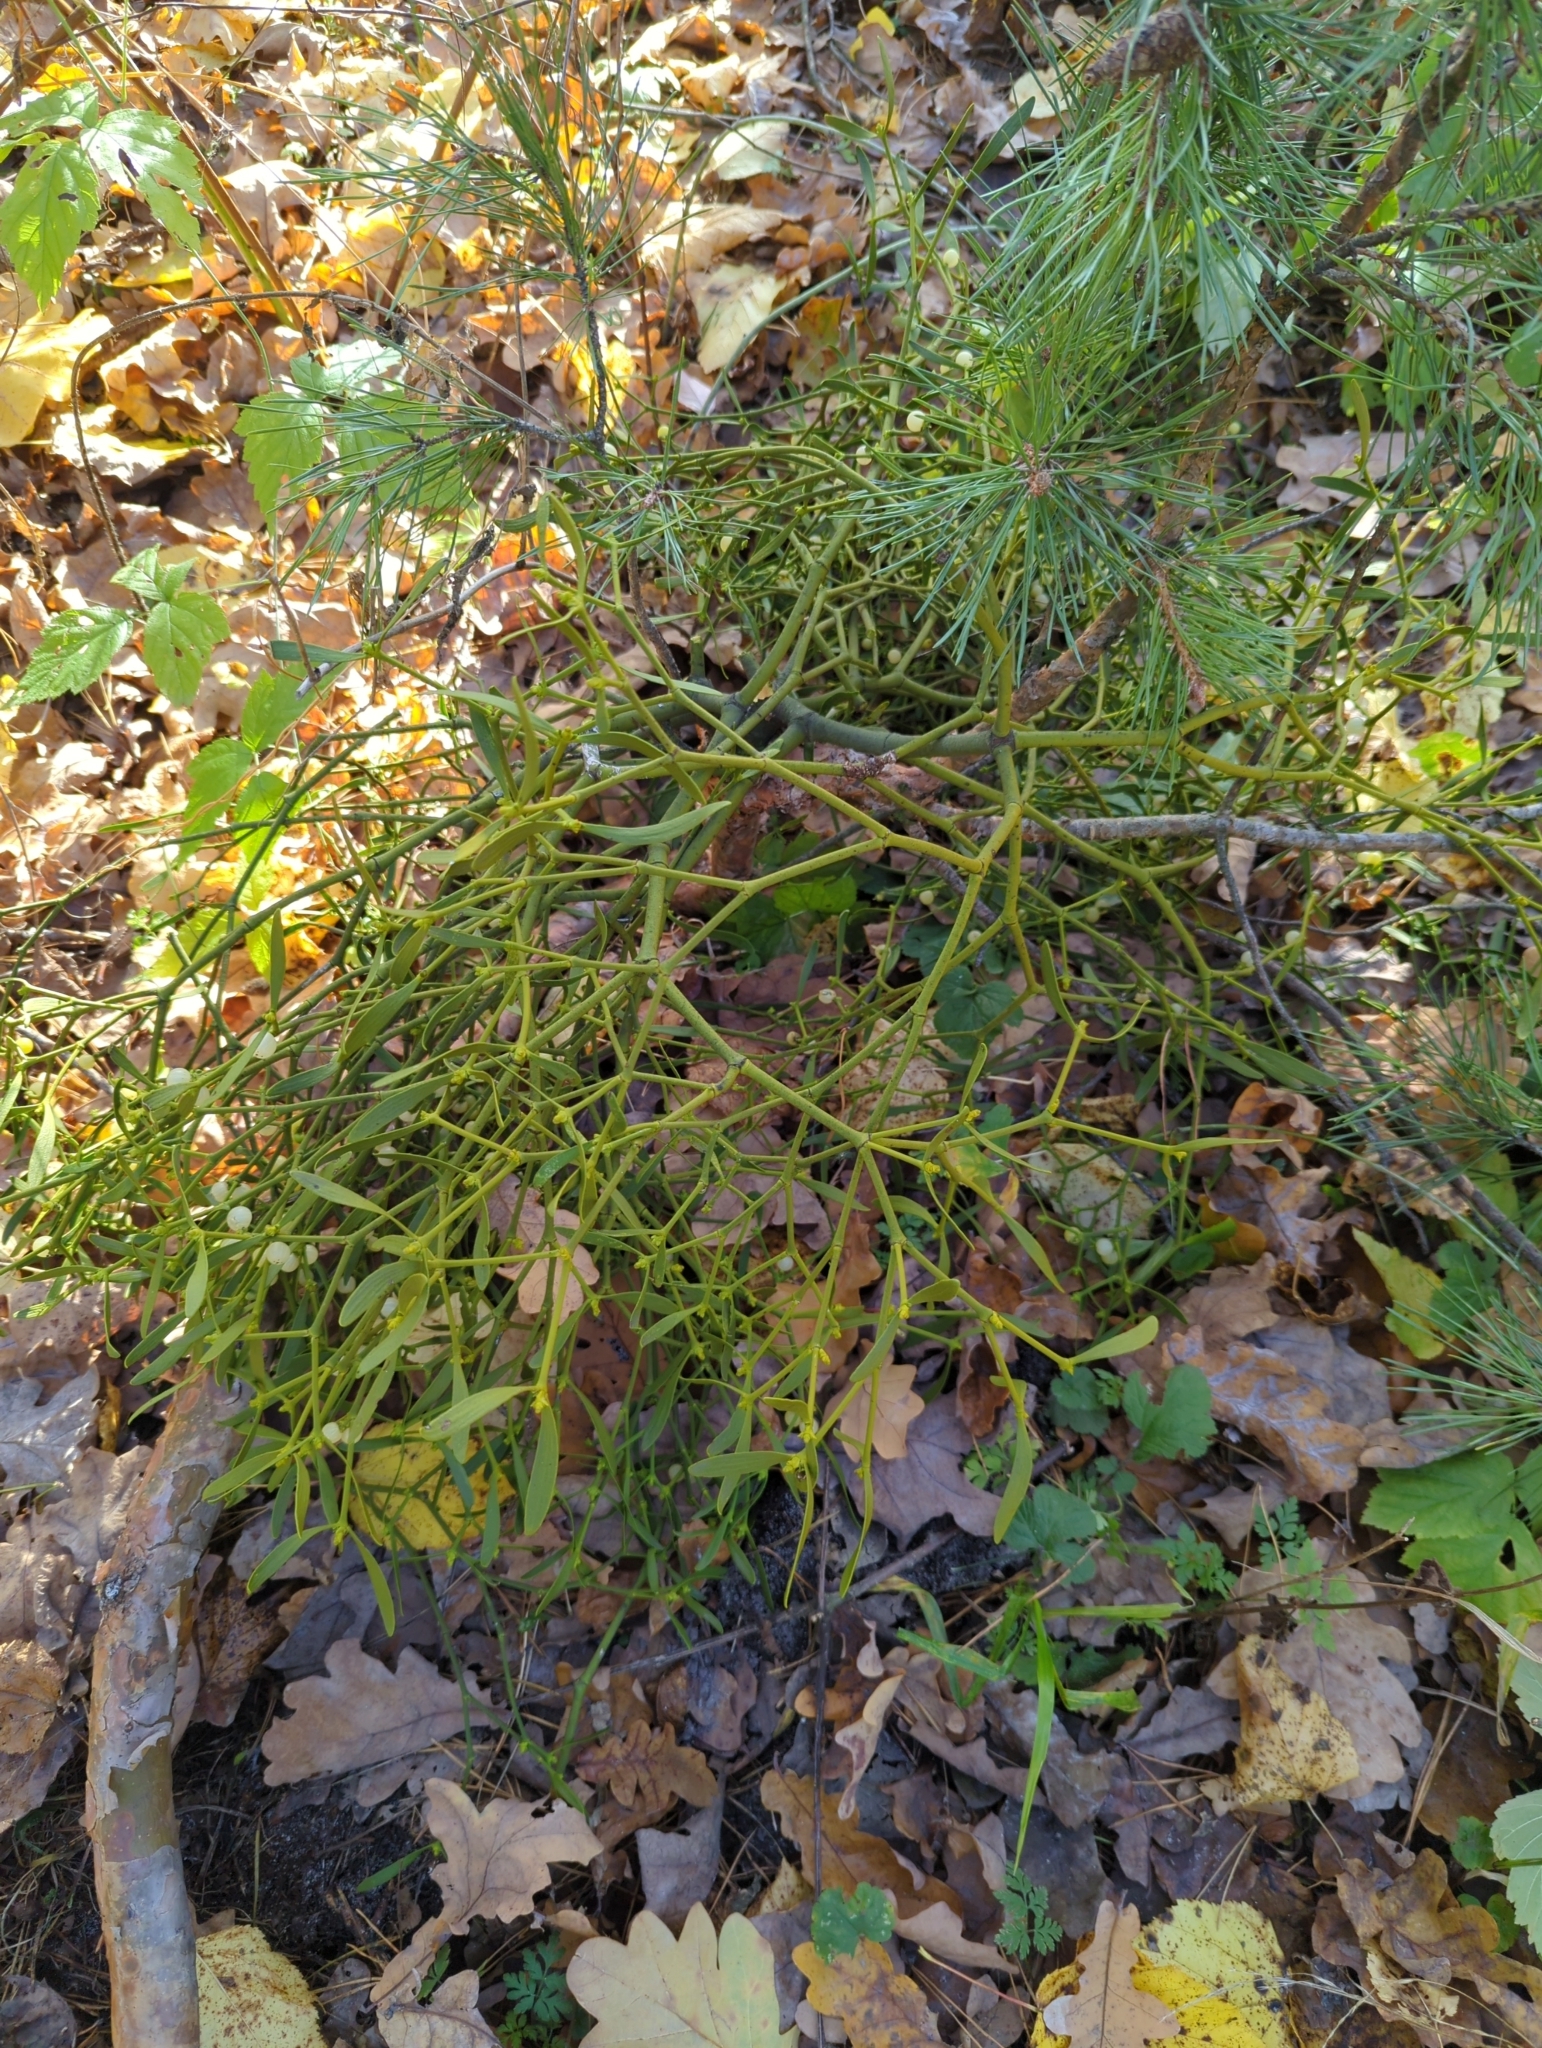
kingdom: Plantae
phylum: Tracheophyta
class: Magnoliopsida
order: Santalales
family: Viscaceae
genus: Viscum
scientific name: Viscum album
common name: Mistletoe
